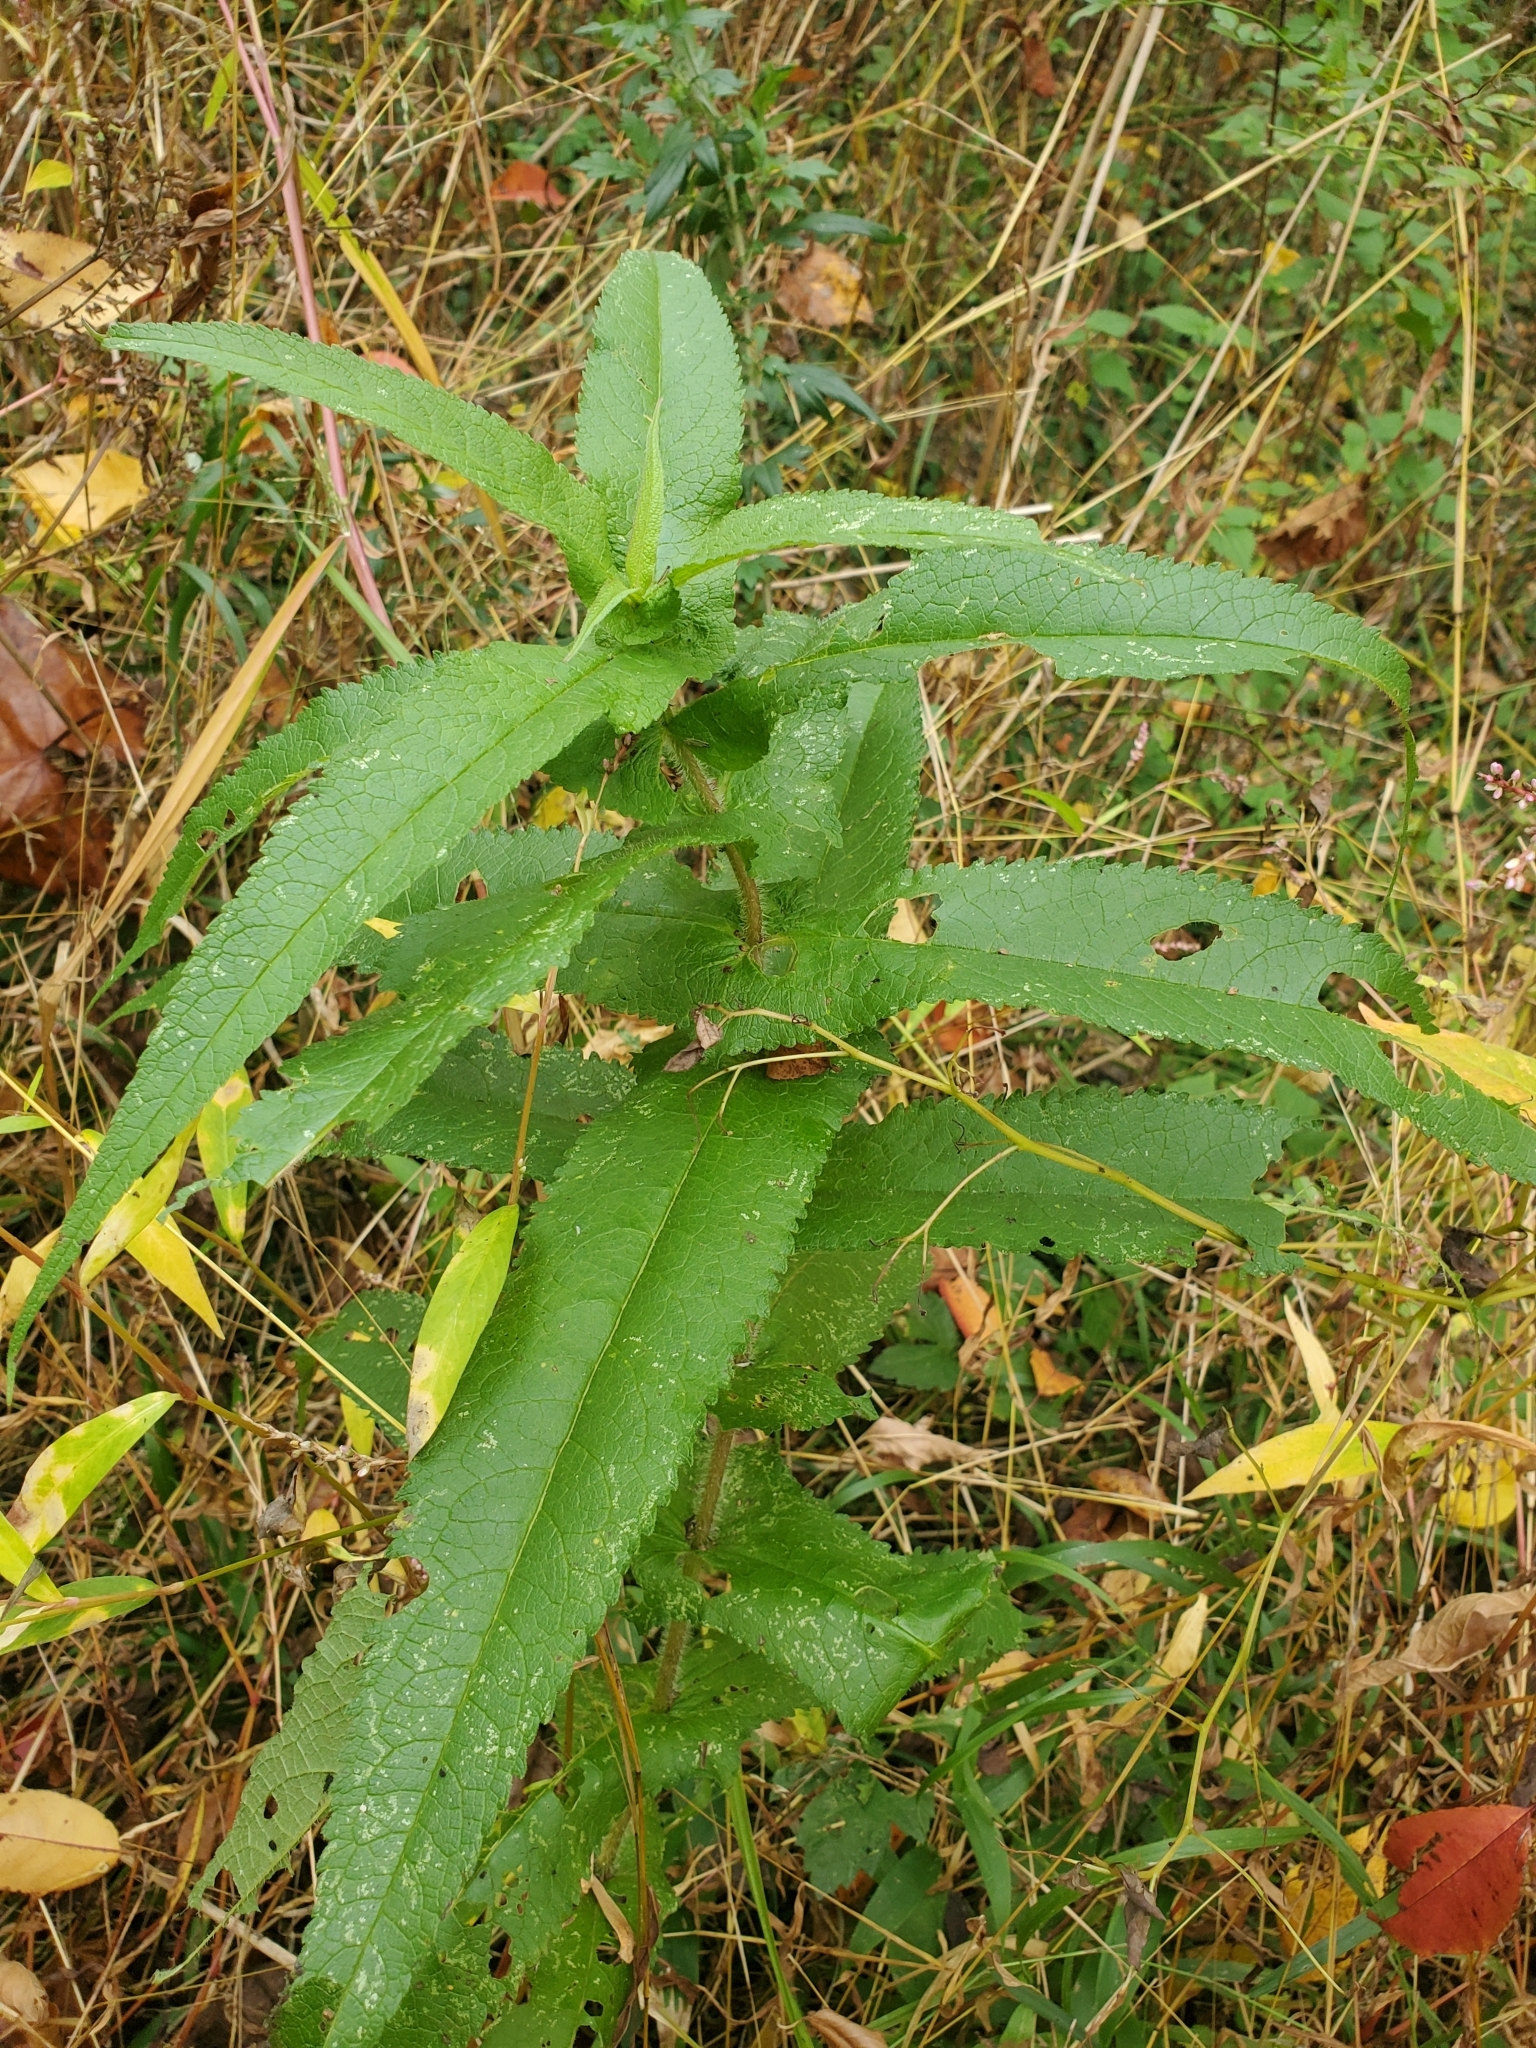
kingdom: Plantae
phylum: Tracheophyta
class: Magnoliopsida
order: Asterales
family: Asteraceae
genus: Eupatorium
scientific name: Eupatorium perfoliatum
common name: Boneset
